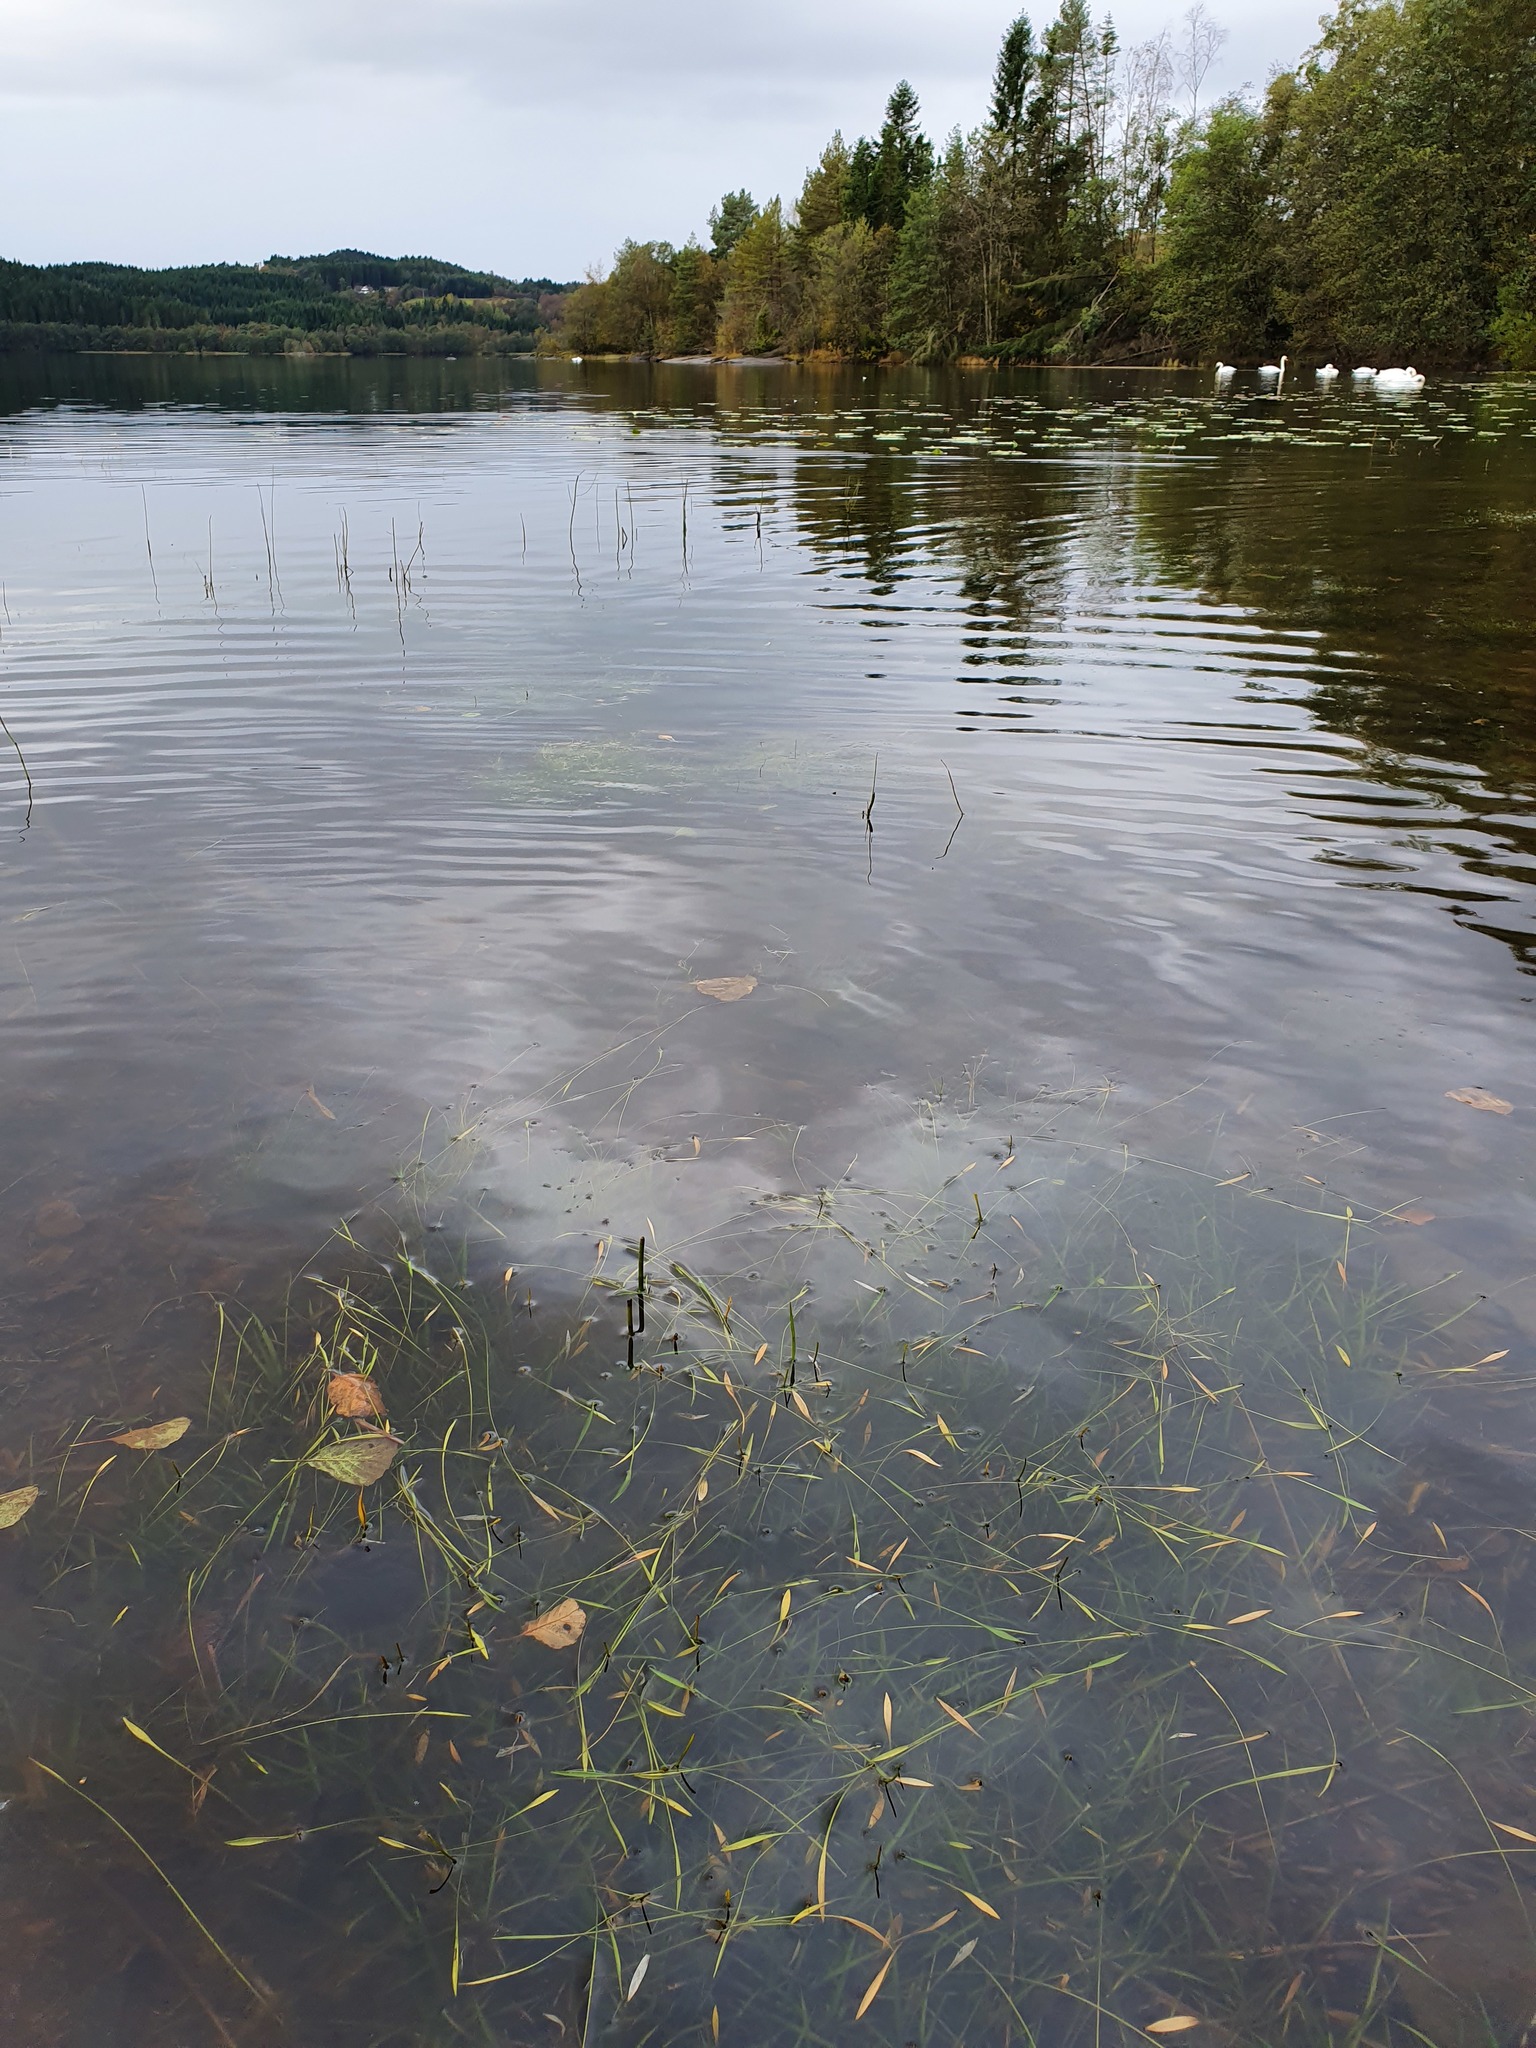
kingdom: Plantae
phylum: Tracheophyta
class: Liliopsida
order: Alismatales
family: Alismataceae
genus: Baldellia
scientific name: Baldellia repens
